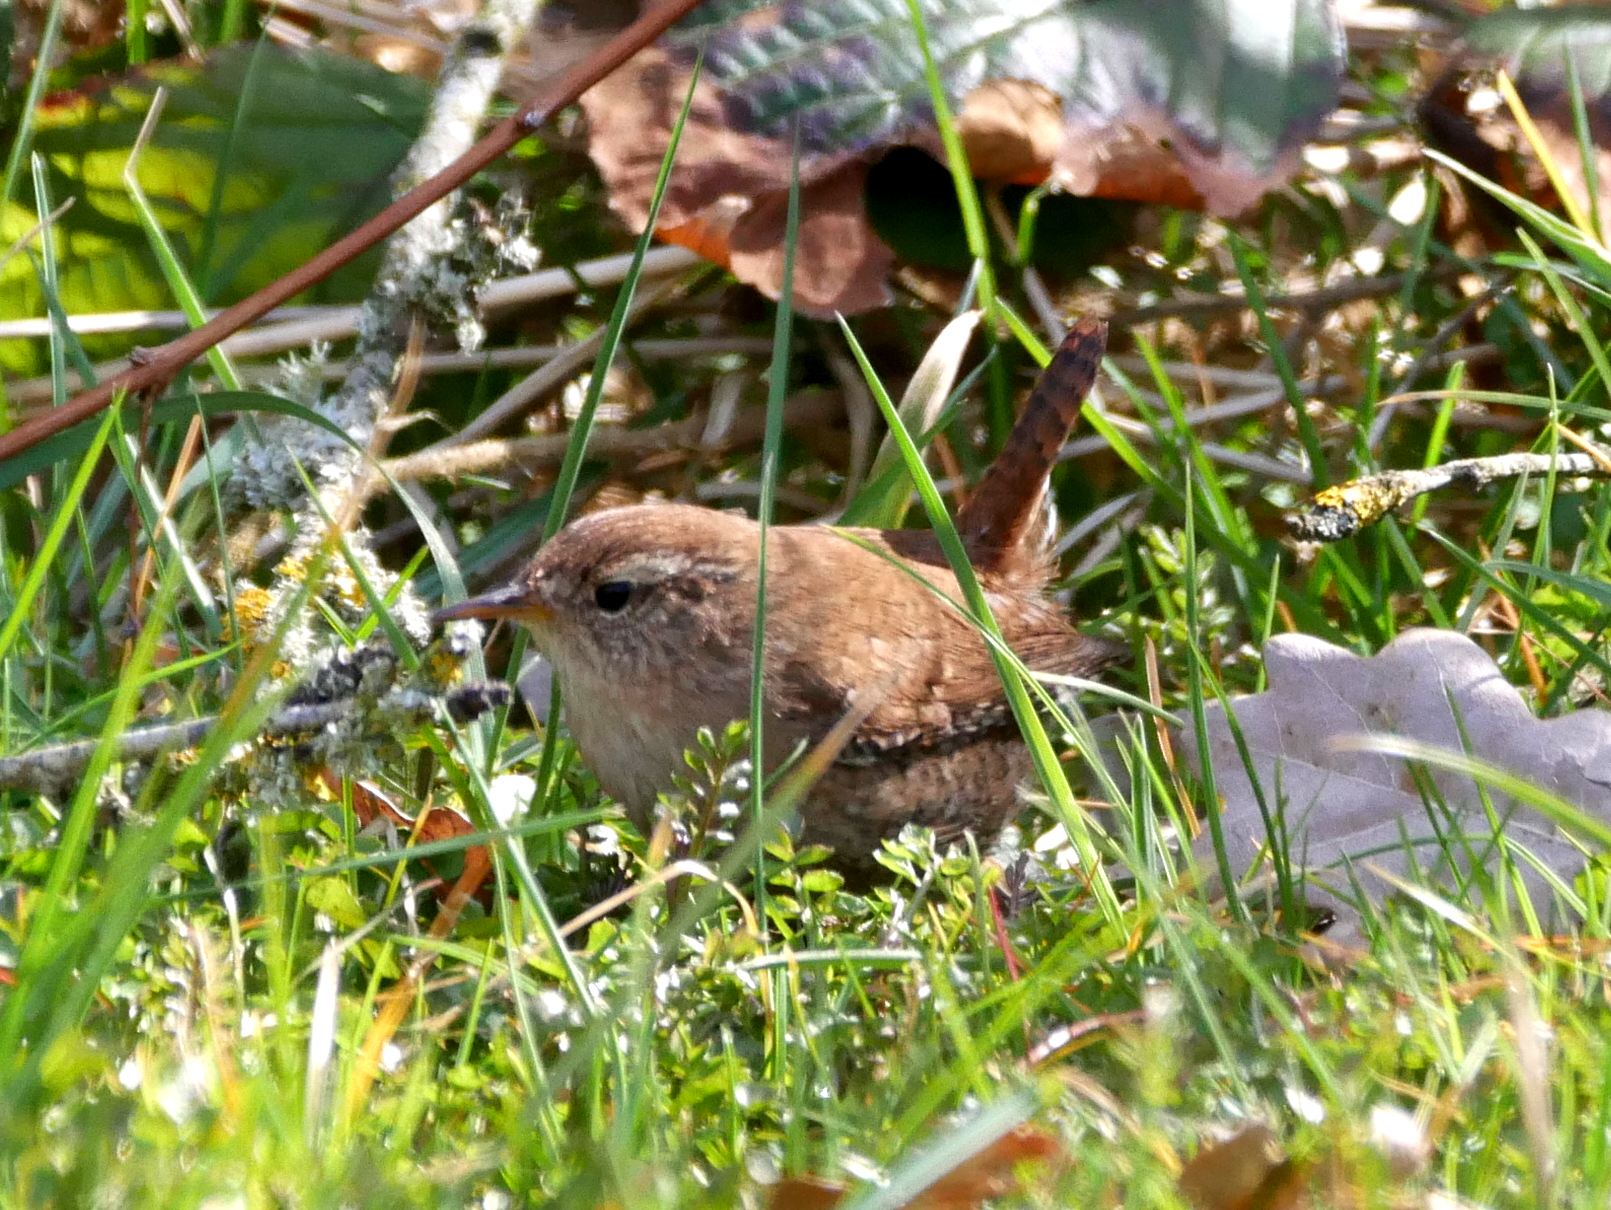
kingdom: Animalia
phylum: Chordata
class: Aves
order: Passeriformes
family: Troglodytidae
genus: Troglodytes
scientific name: Troglodytes troglodytes
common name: Eurasian wren
